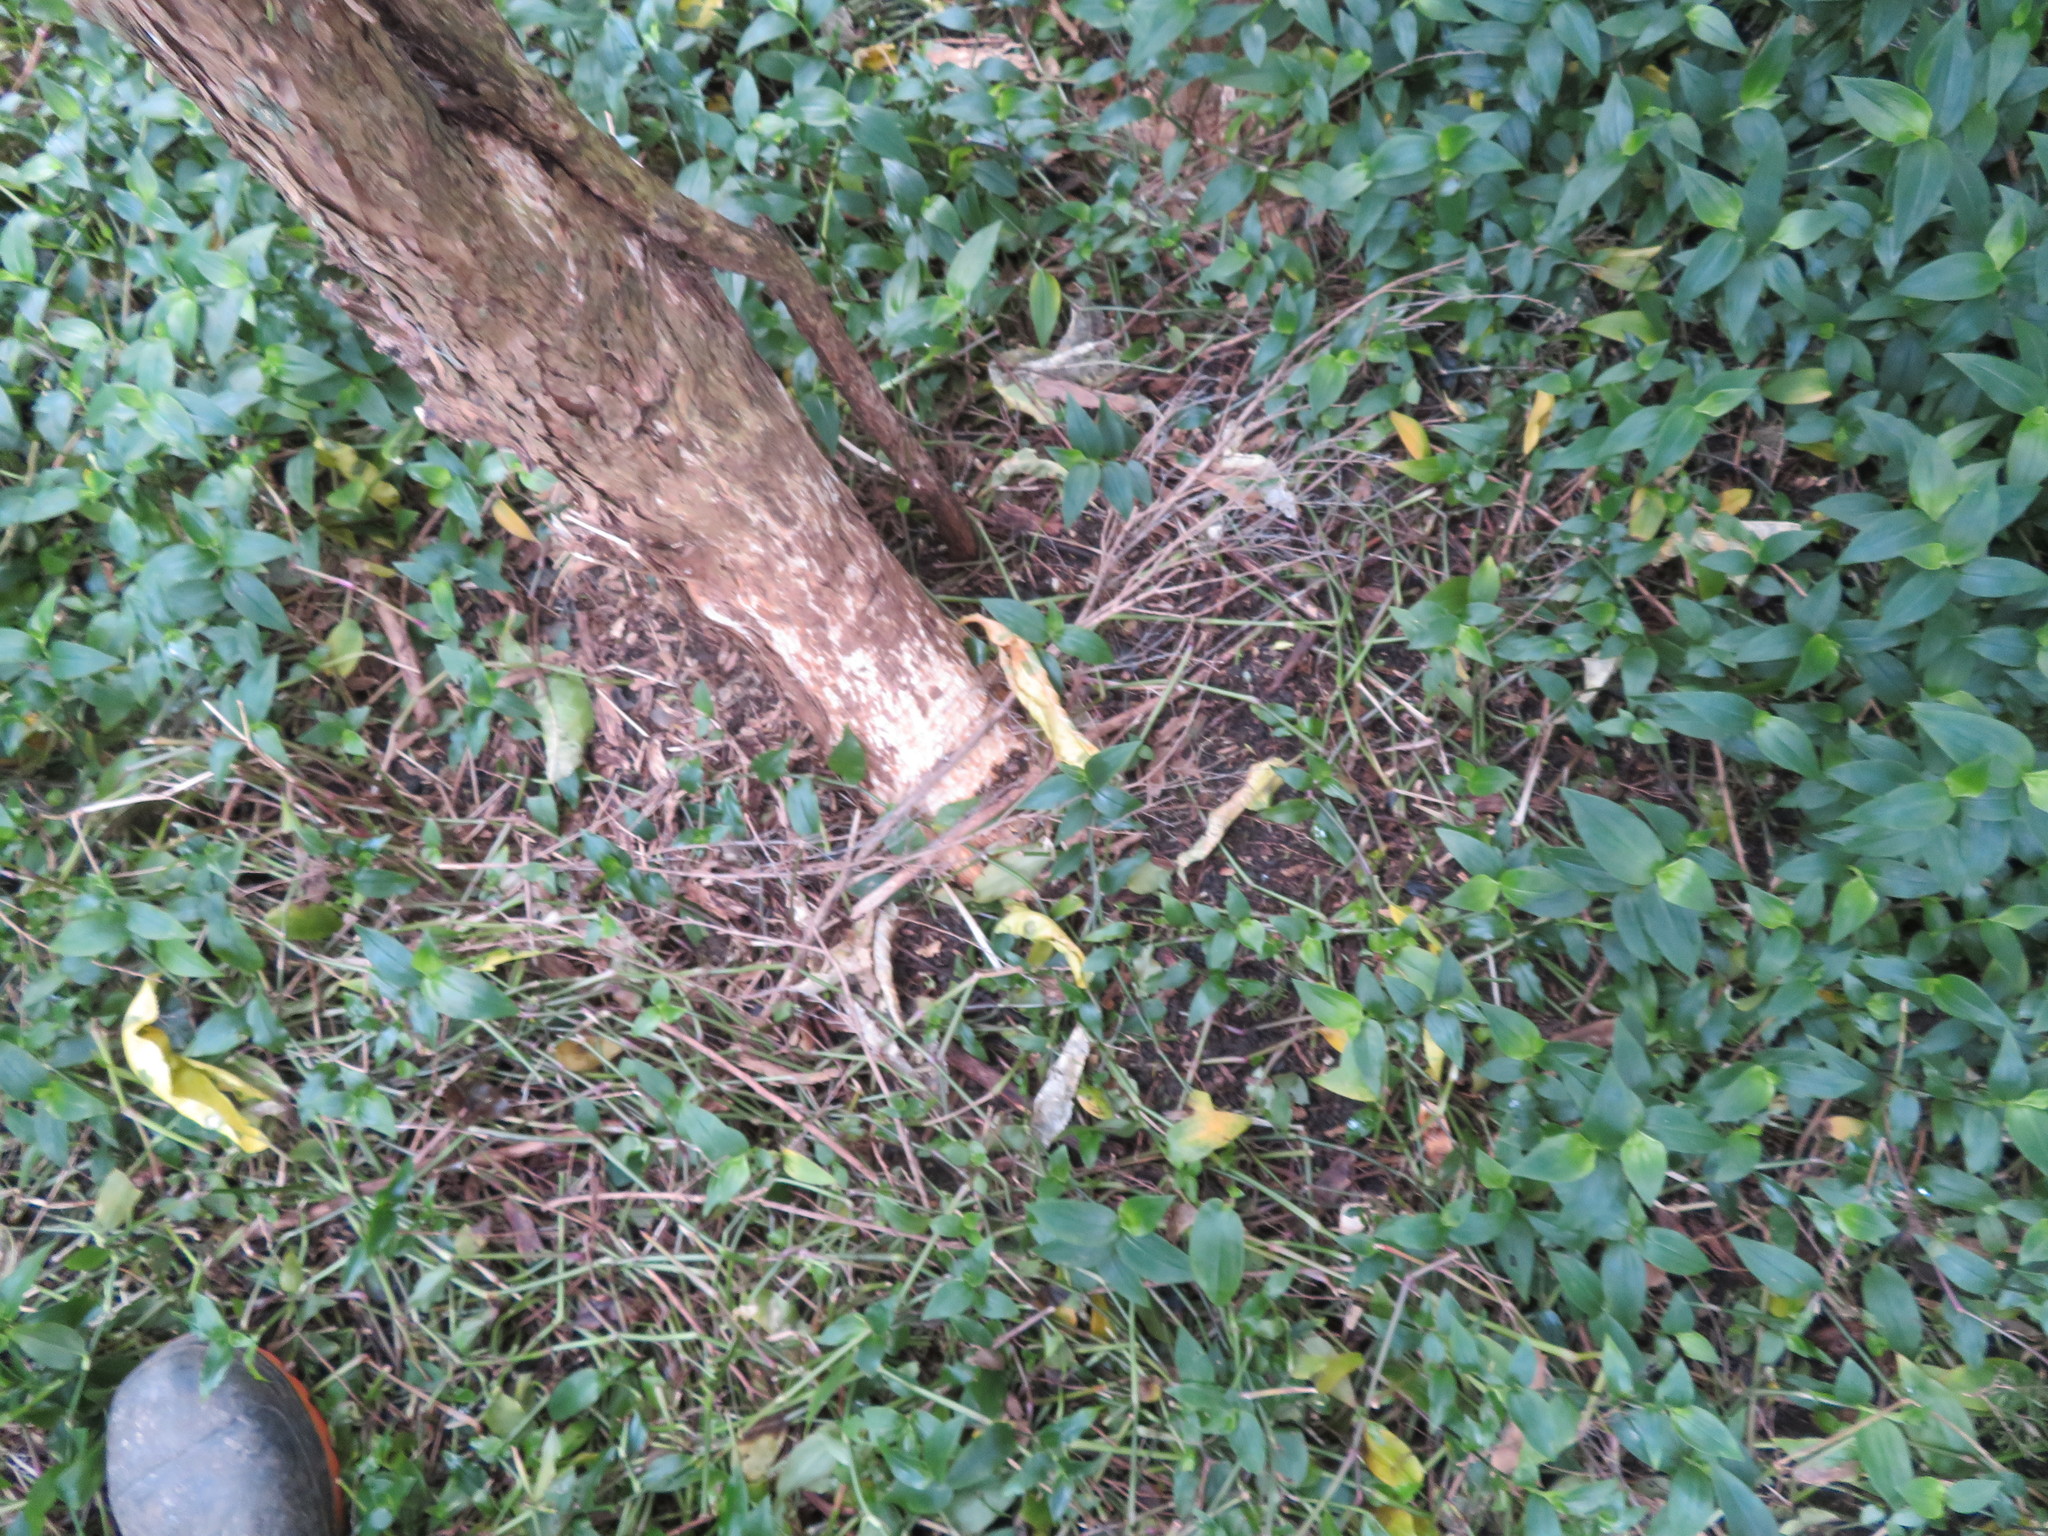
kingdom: Plantae
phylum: Tracheophyta
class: Liliopsida
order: Commelinales
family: Commelinaceae
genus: Tradescantia
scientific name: Tradescantia fluminensis
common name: Wandering-jew
